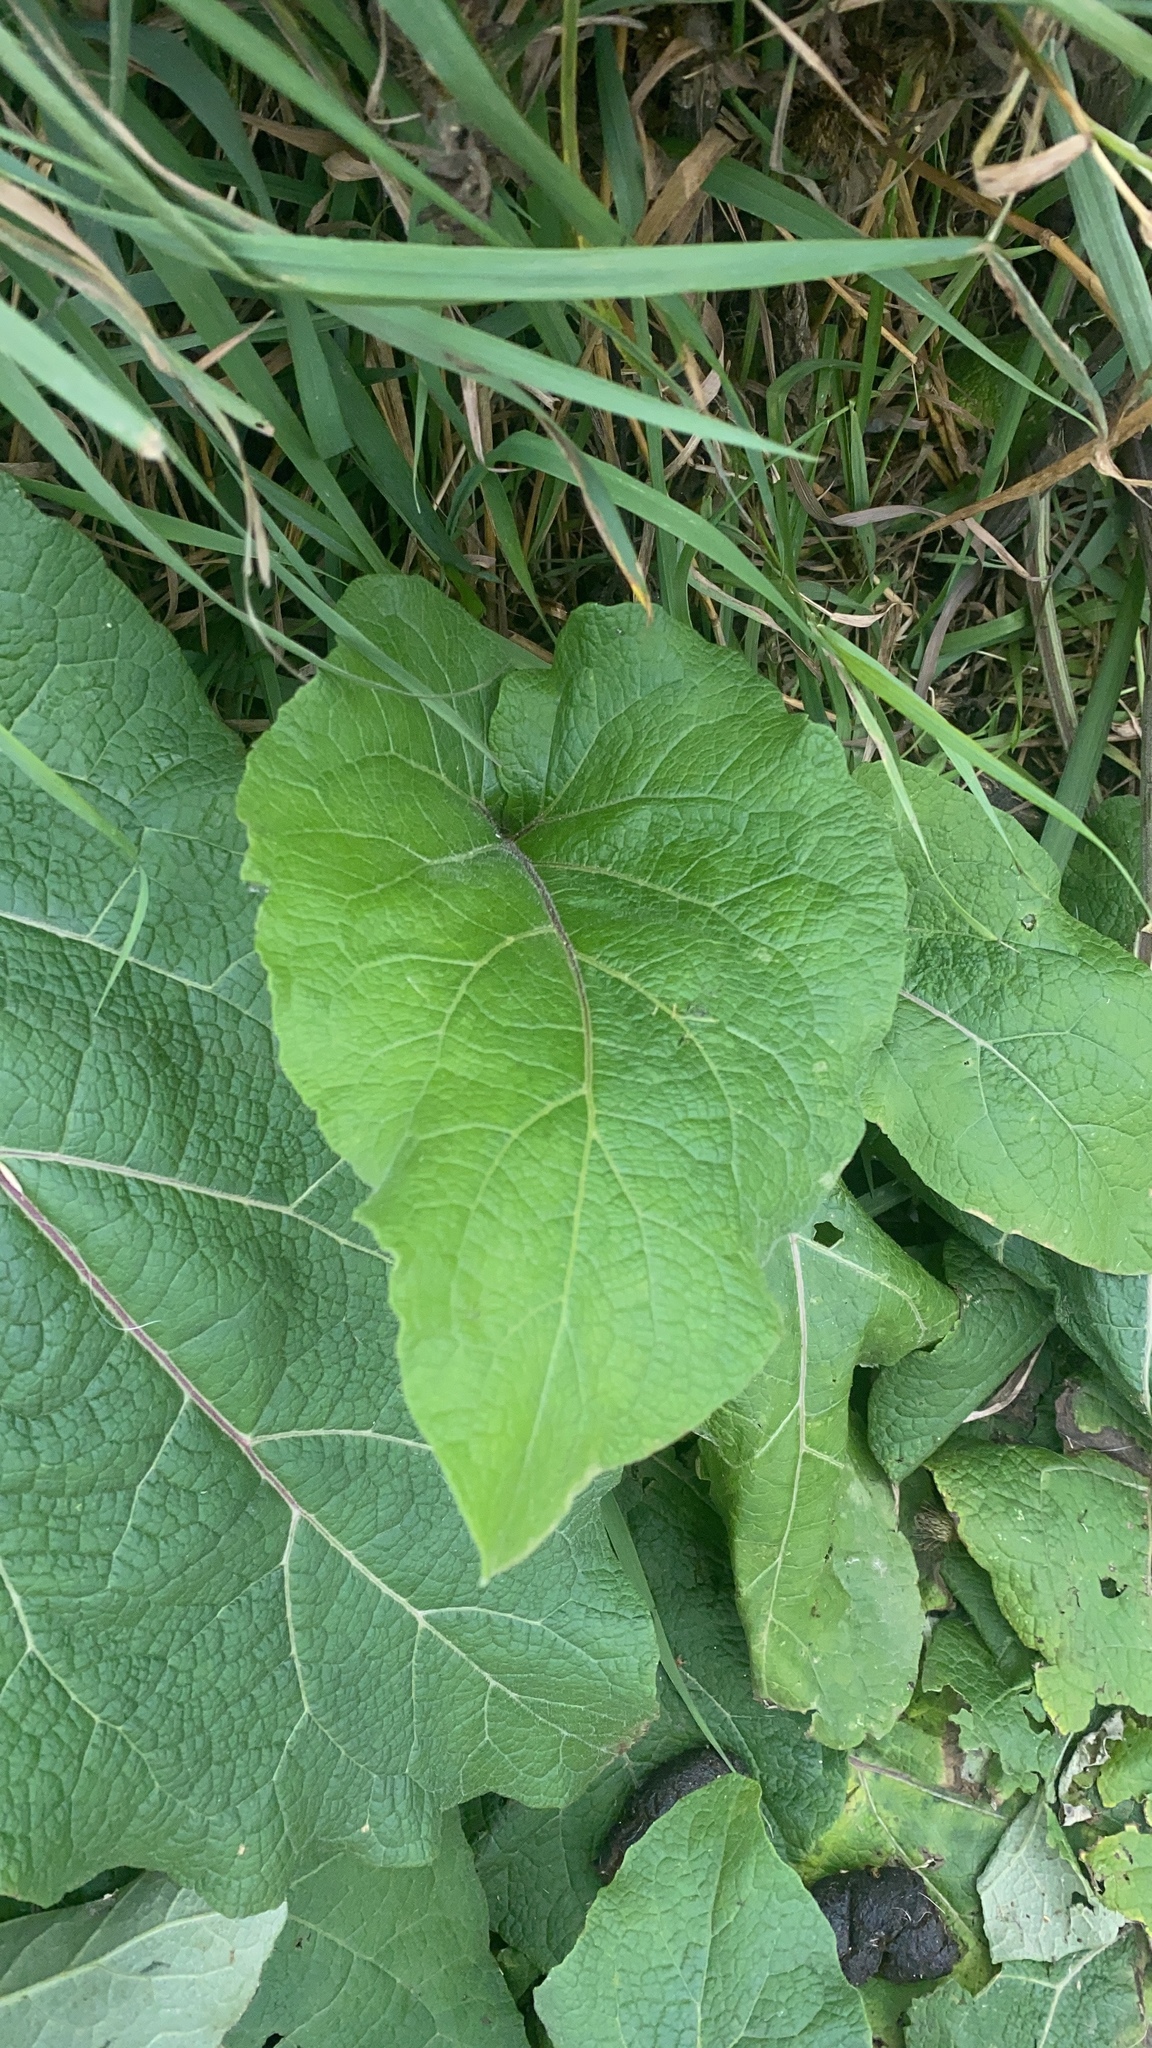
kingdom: Plantae
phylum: Tracheophyta
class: Magnoliopsida
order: Asterales
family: Asteraceae
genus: Arctium
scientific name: Arctium
